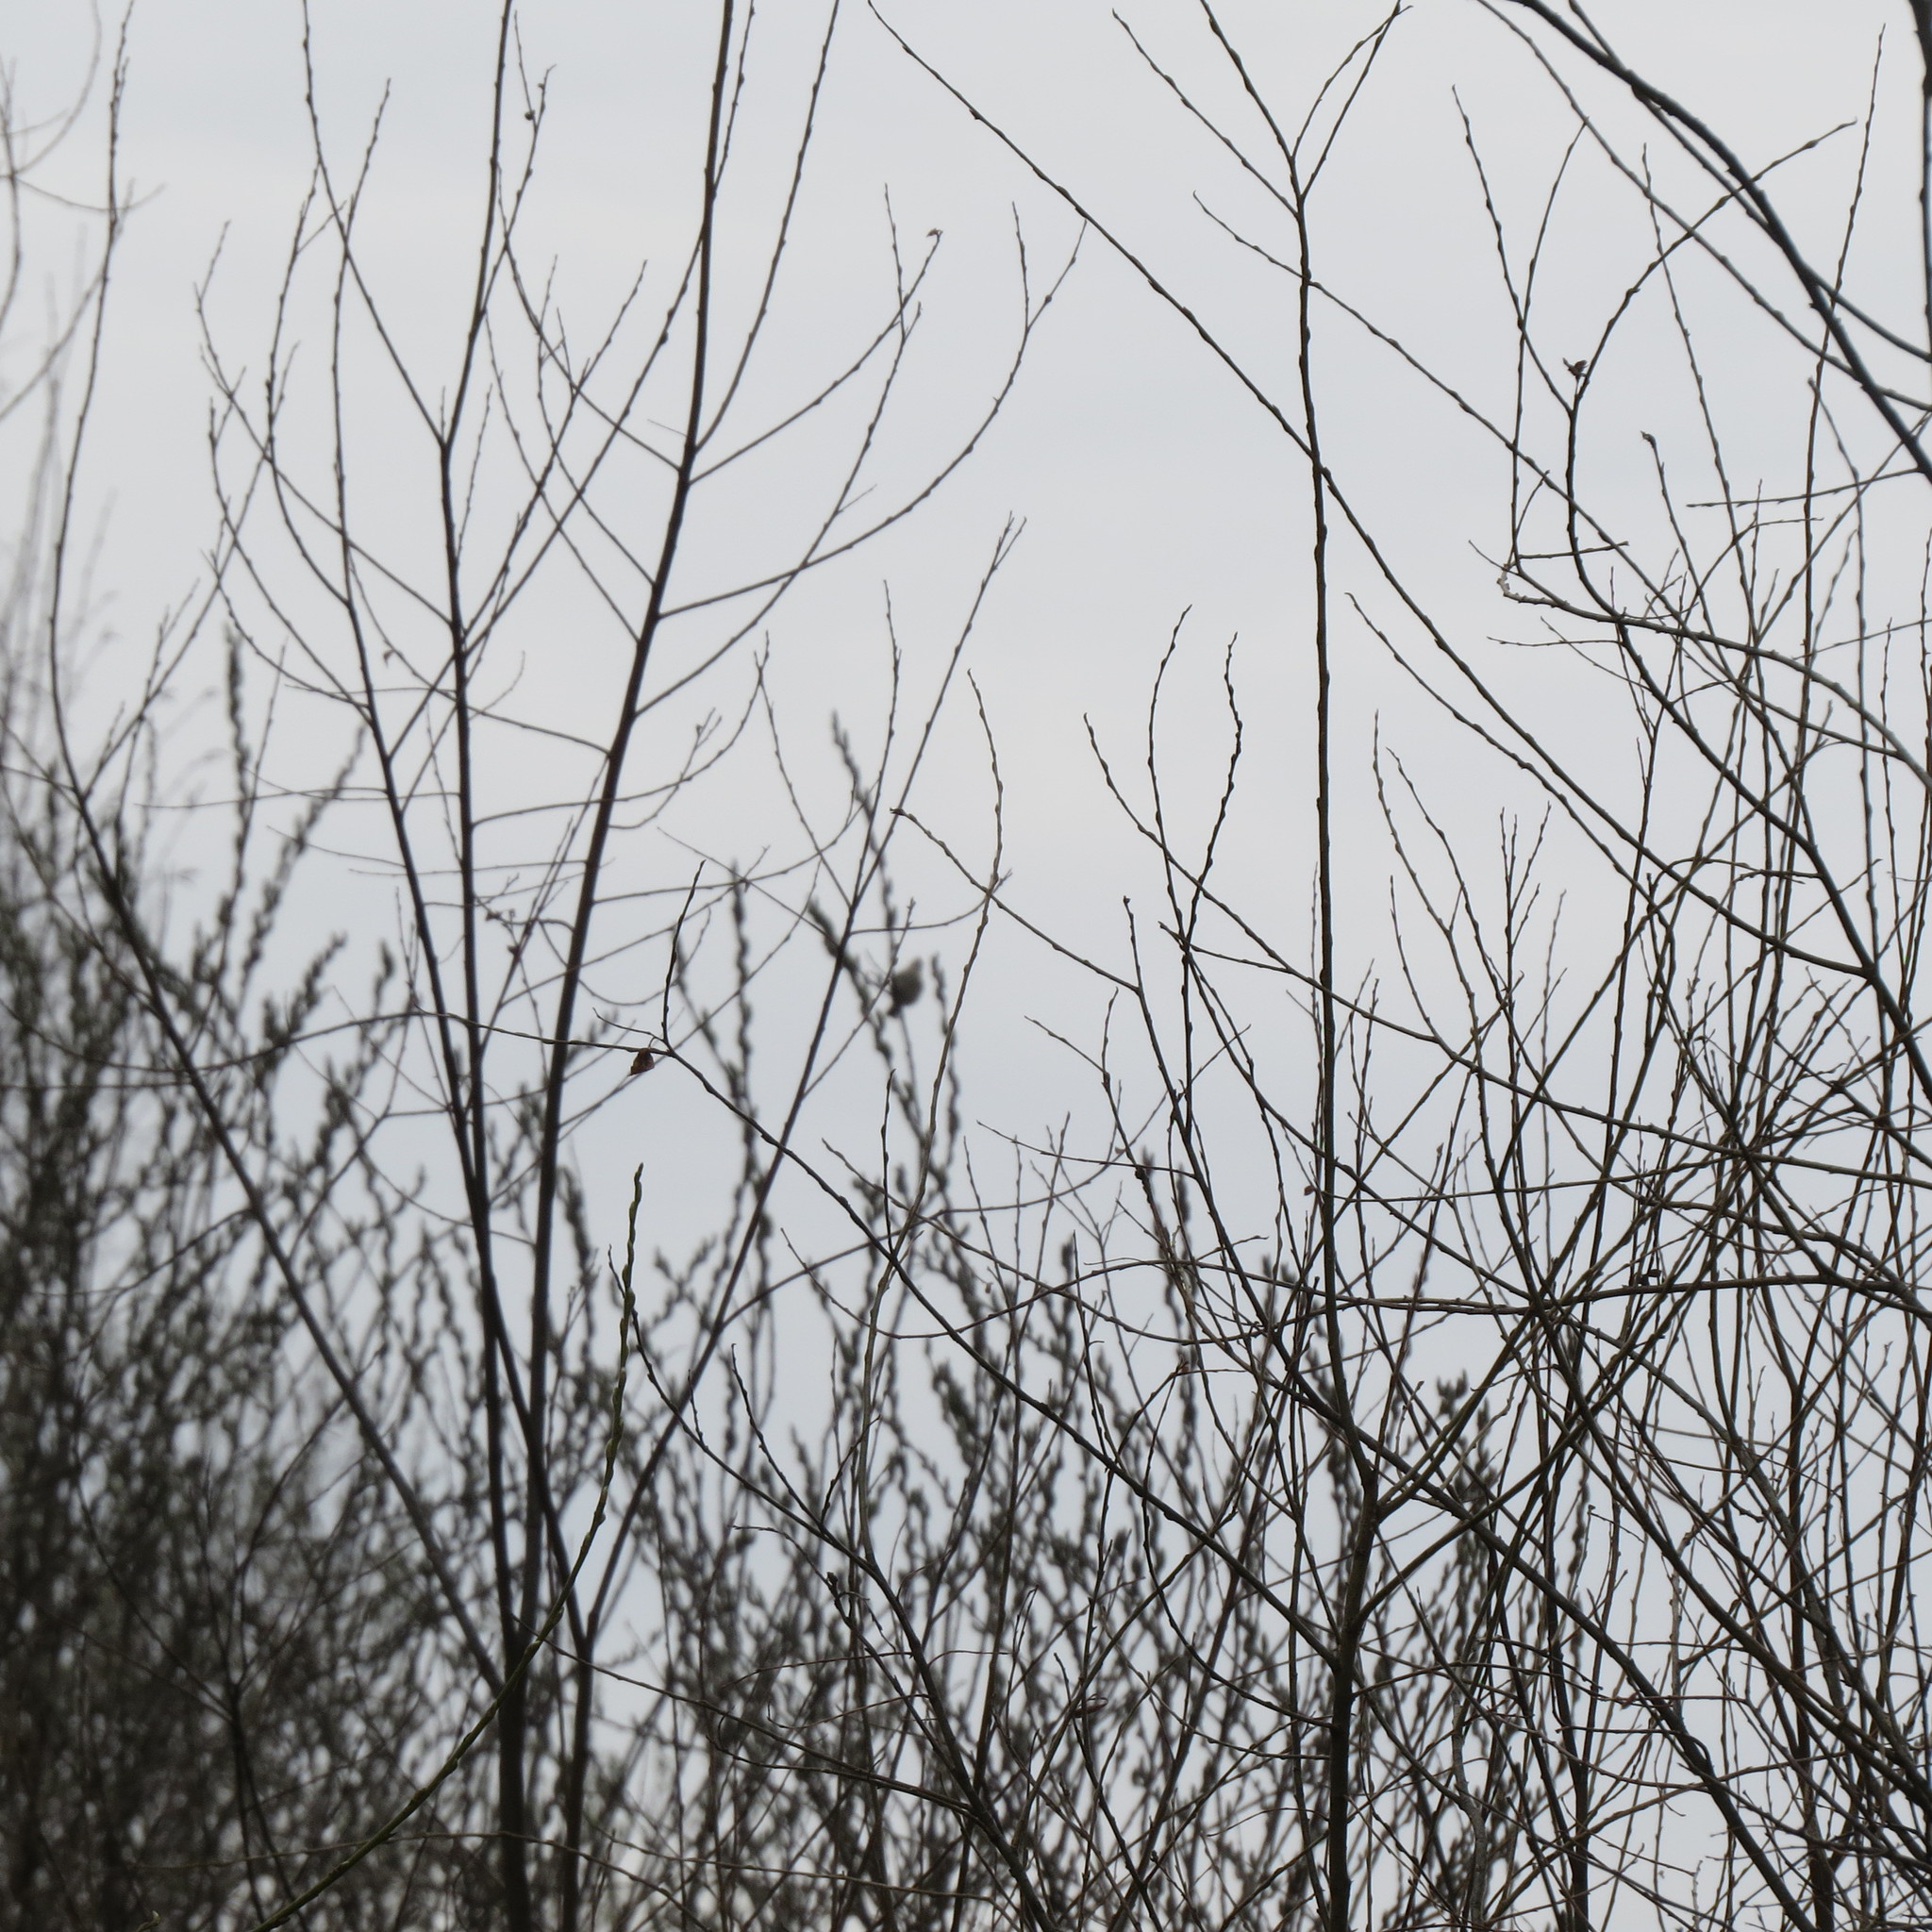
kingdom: Animalia
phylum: Chordata
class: Aves
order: Passeriformes
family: Phylloscopidae
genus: Phylloscopus
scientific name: Phylloscopus collybita
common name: Common chiffchaff
